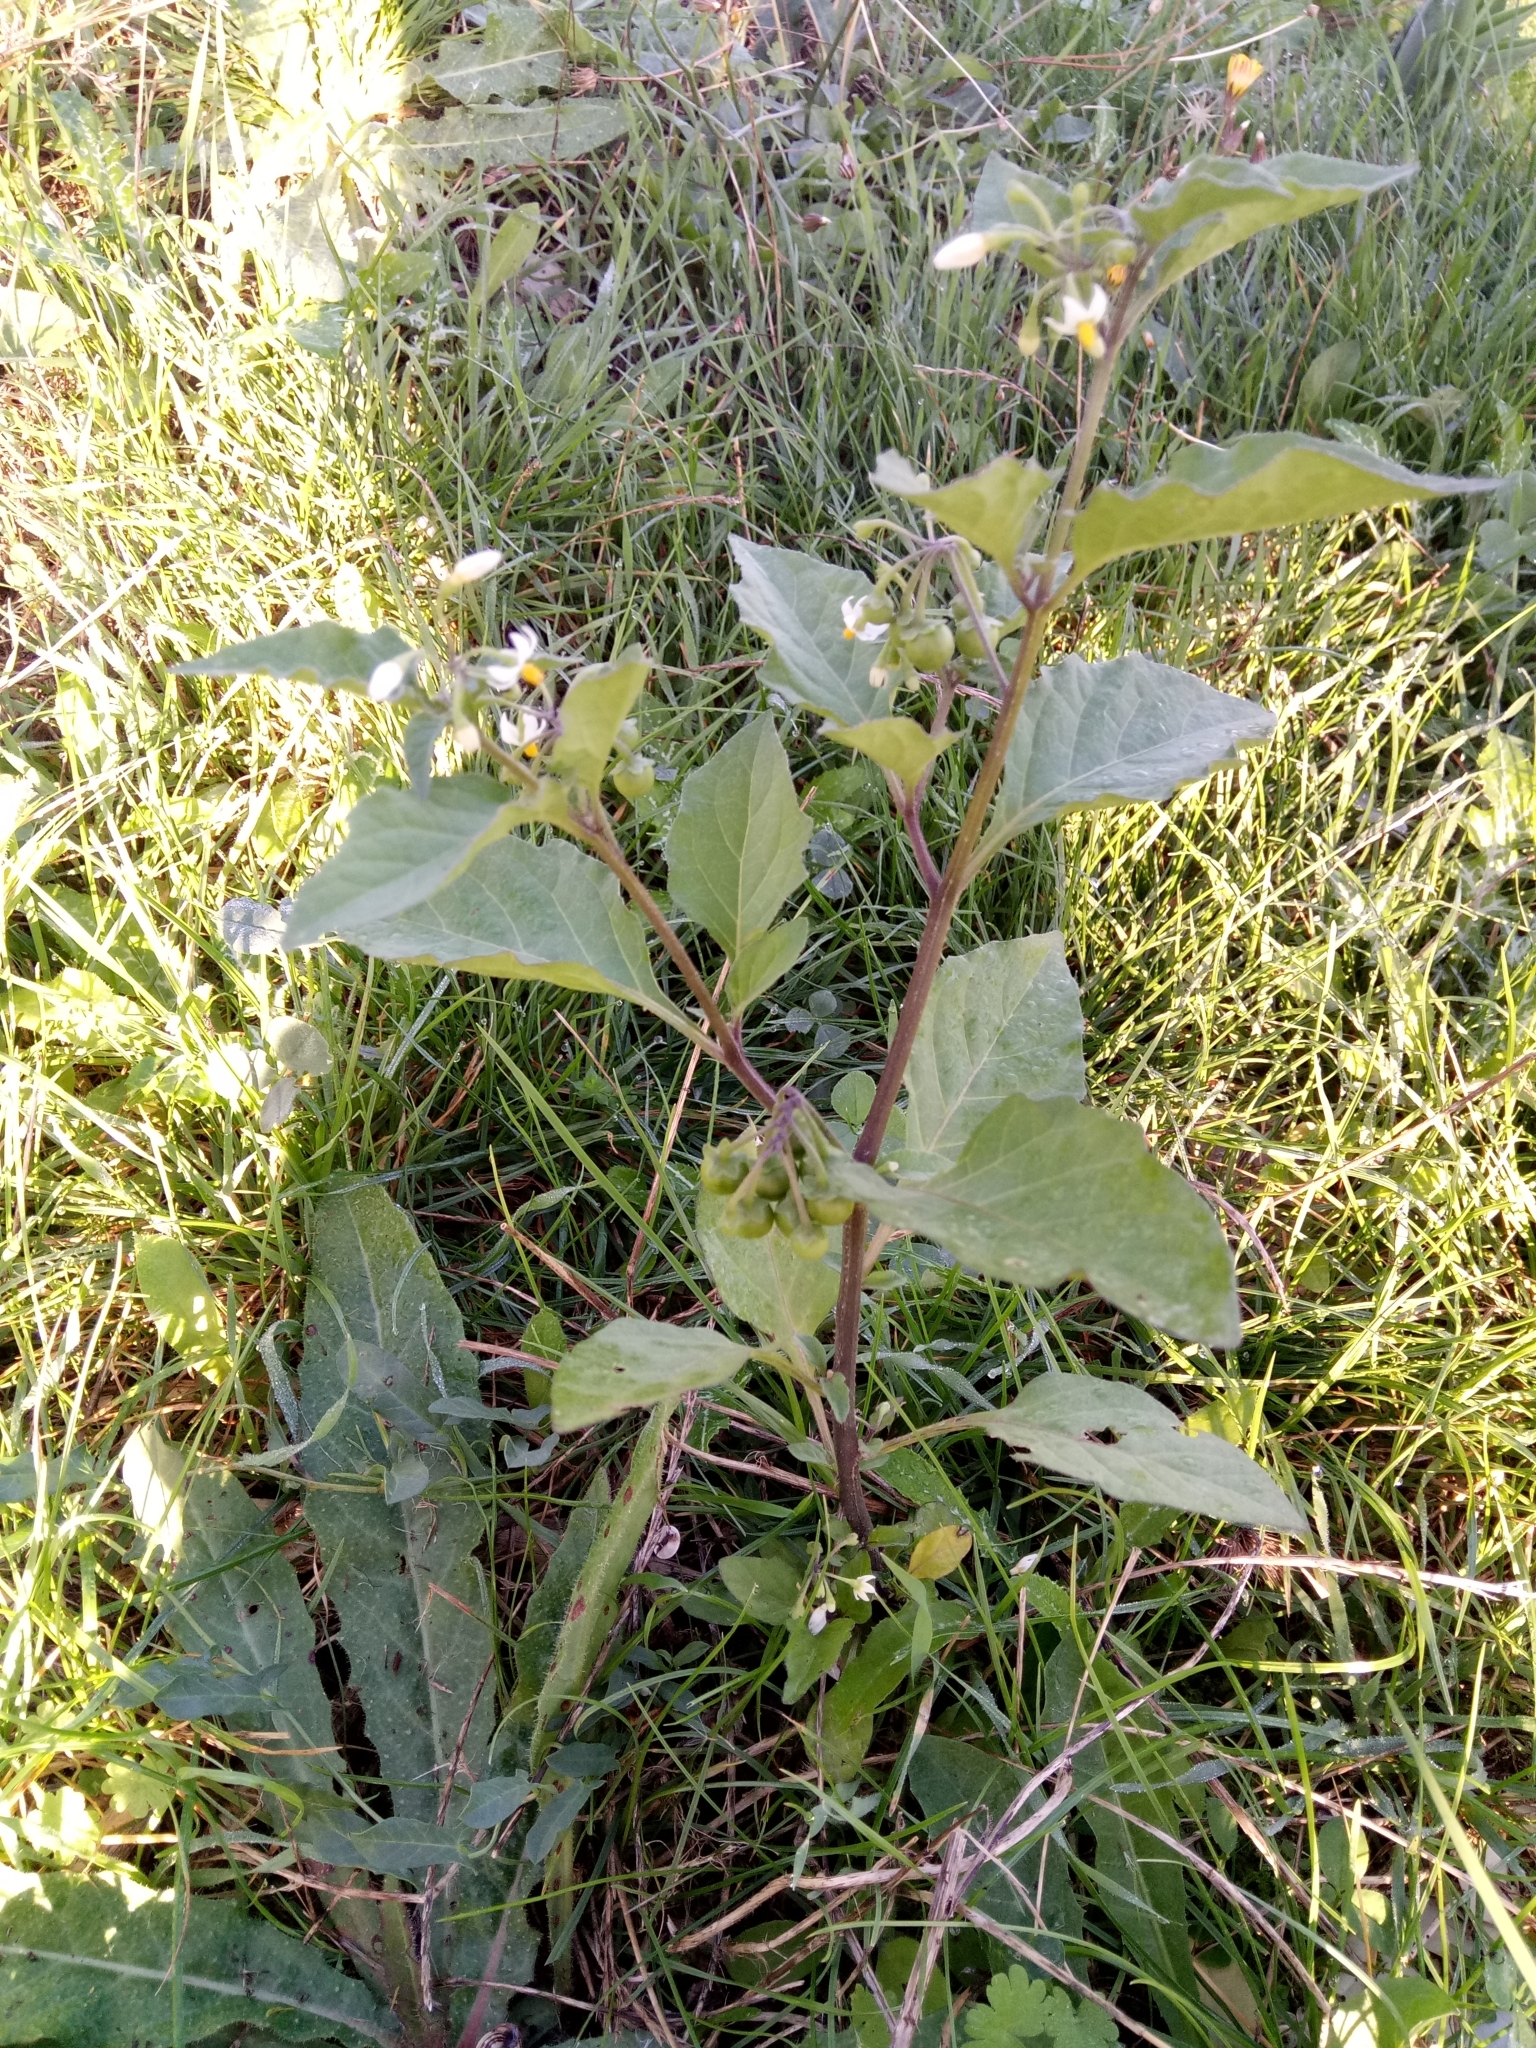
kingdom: Plantae
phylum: Tracheophyta
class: Magnoliopsida
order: Solanales
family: Solanaceae
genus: Solanum
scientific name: Solanum nigrum
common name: Black nightshade
